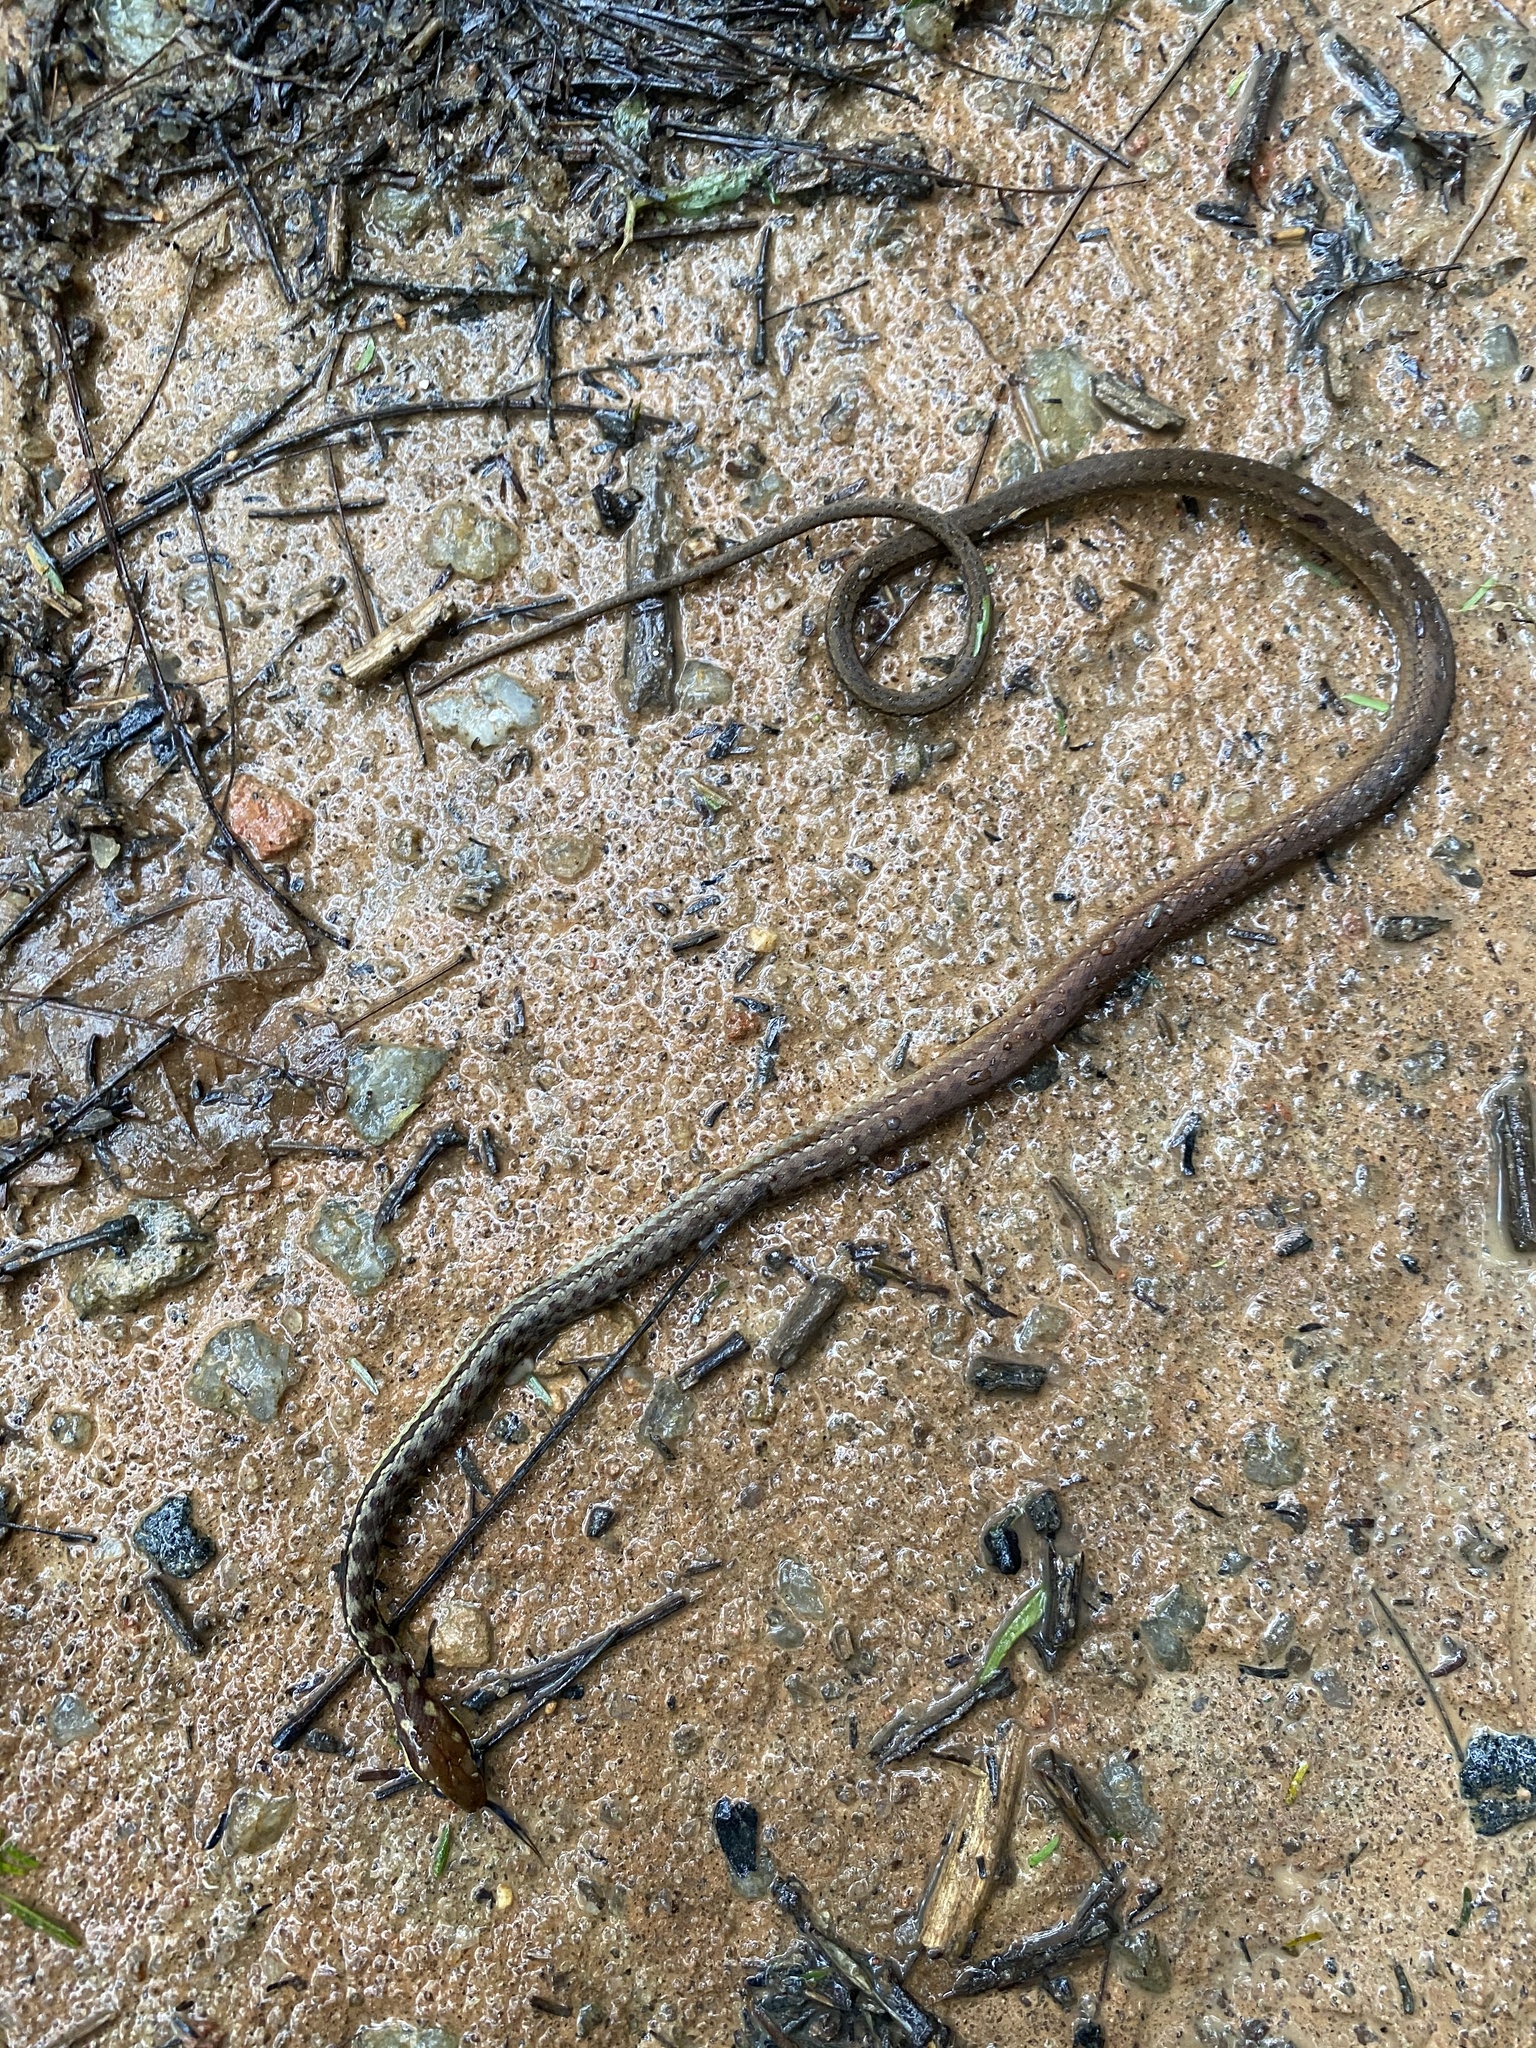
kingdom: Animalia
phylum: Chordata
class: Squamata
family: Colubridae
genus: Echinanthera
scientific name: Echinanthera cephalostriata
